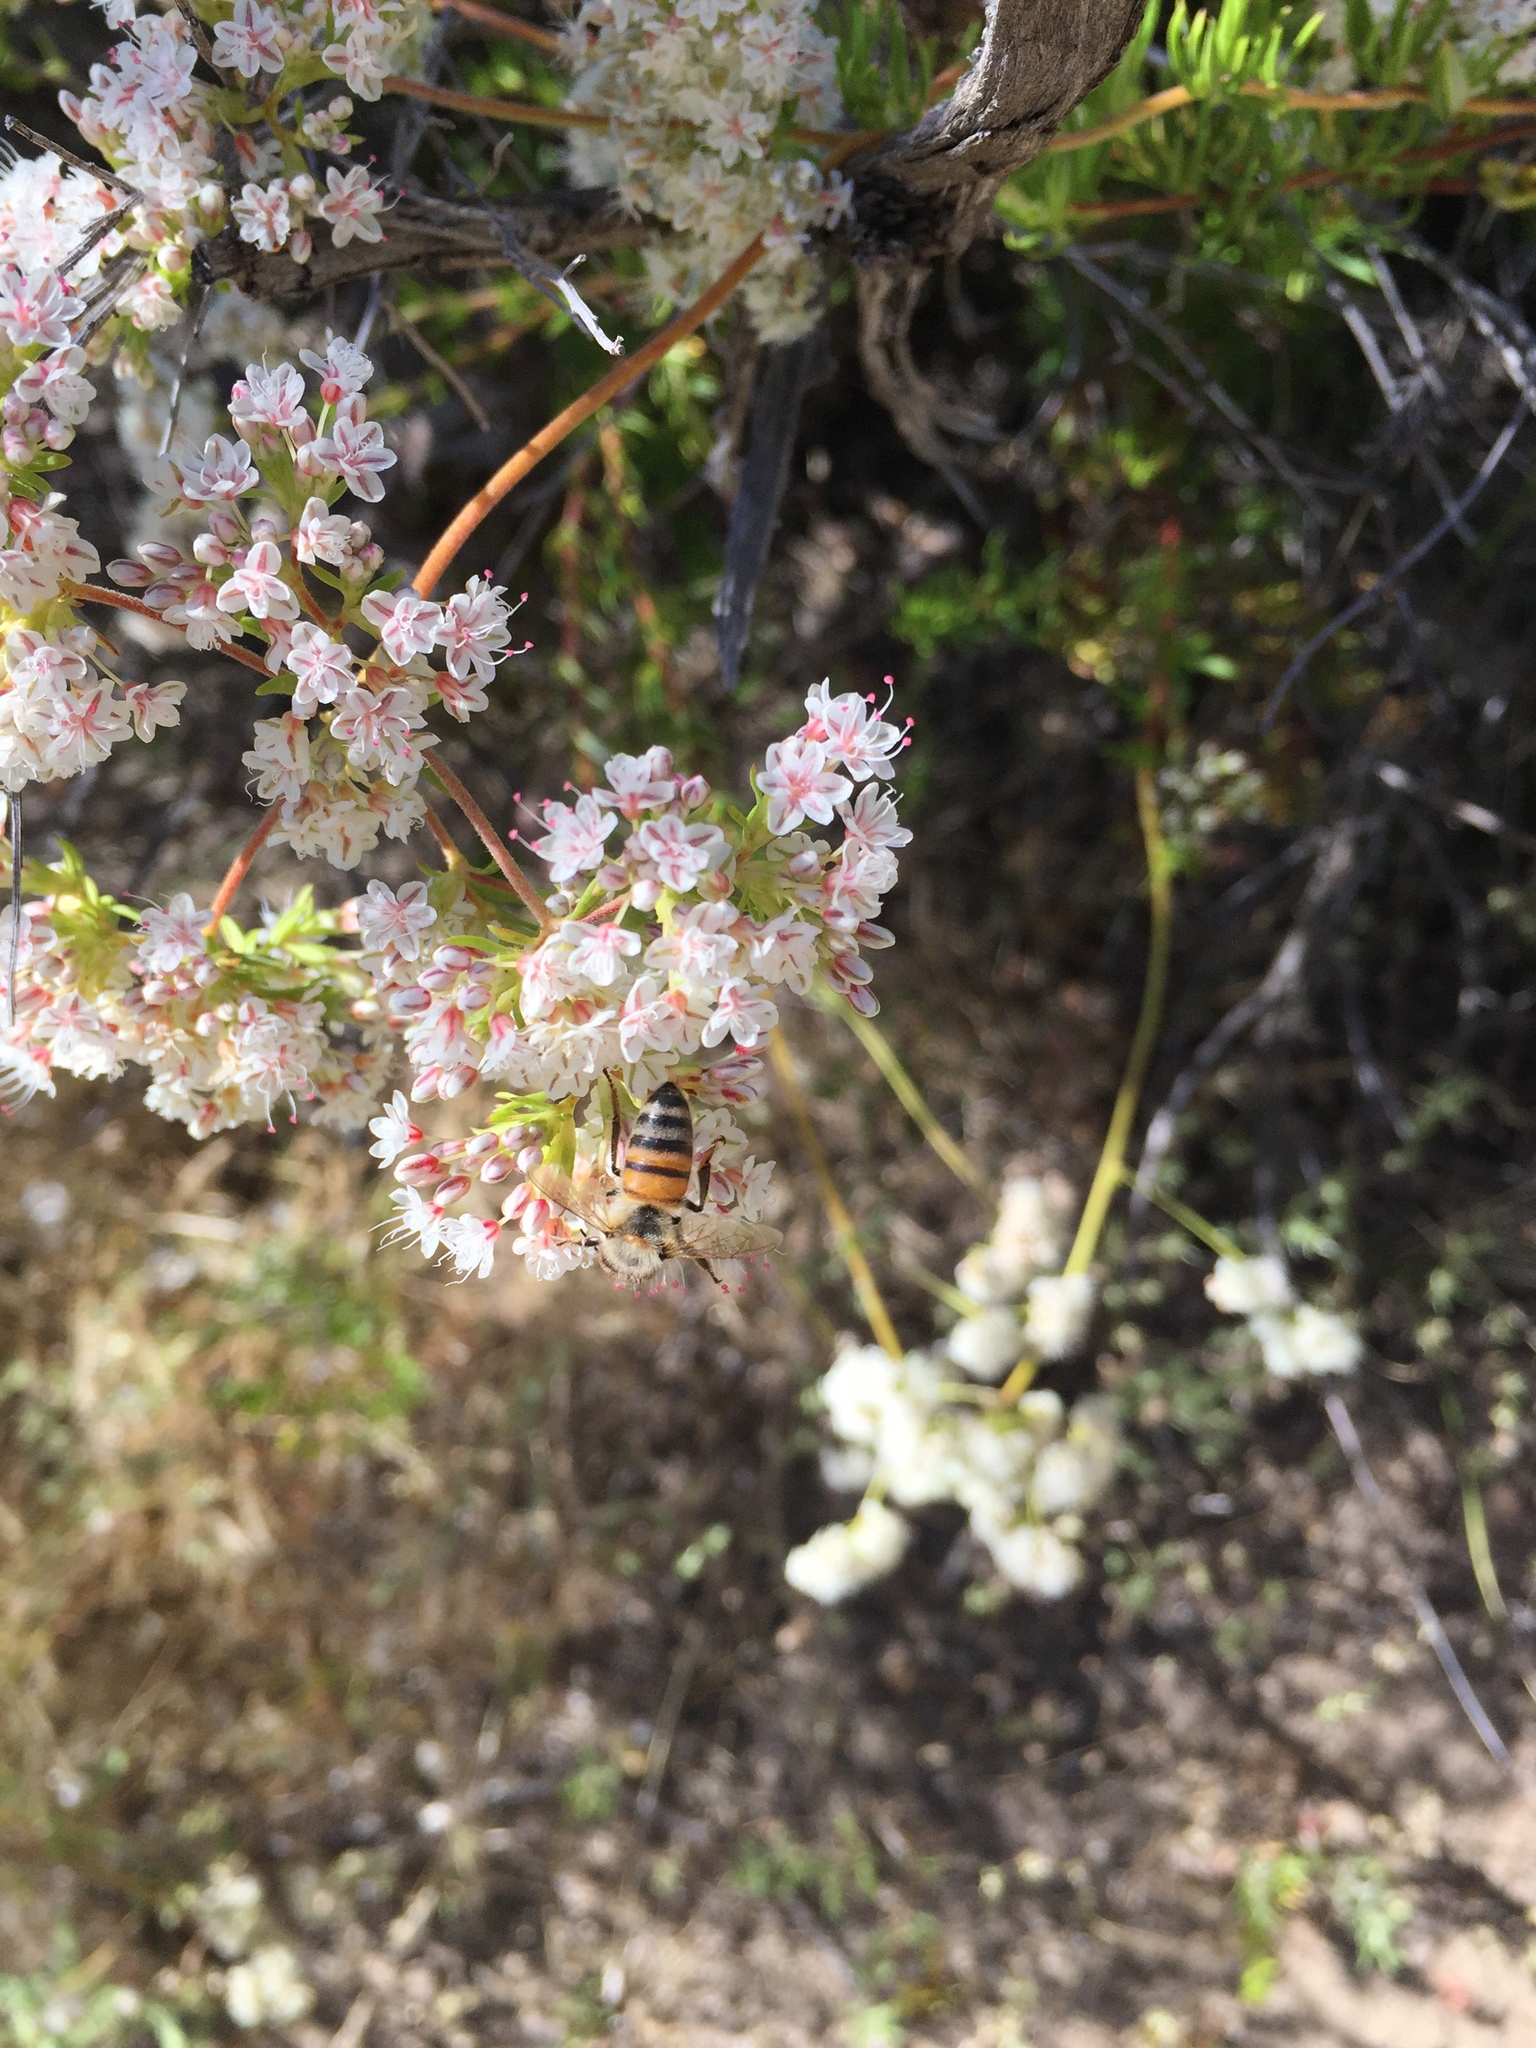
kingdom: Animalia
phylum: Arthropoda
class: Insecta
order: Hymenoptera
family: Apidae
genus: Apis
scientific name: Apis mellifera
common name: Honey bee
